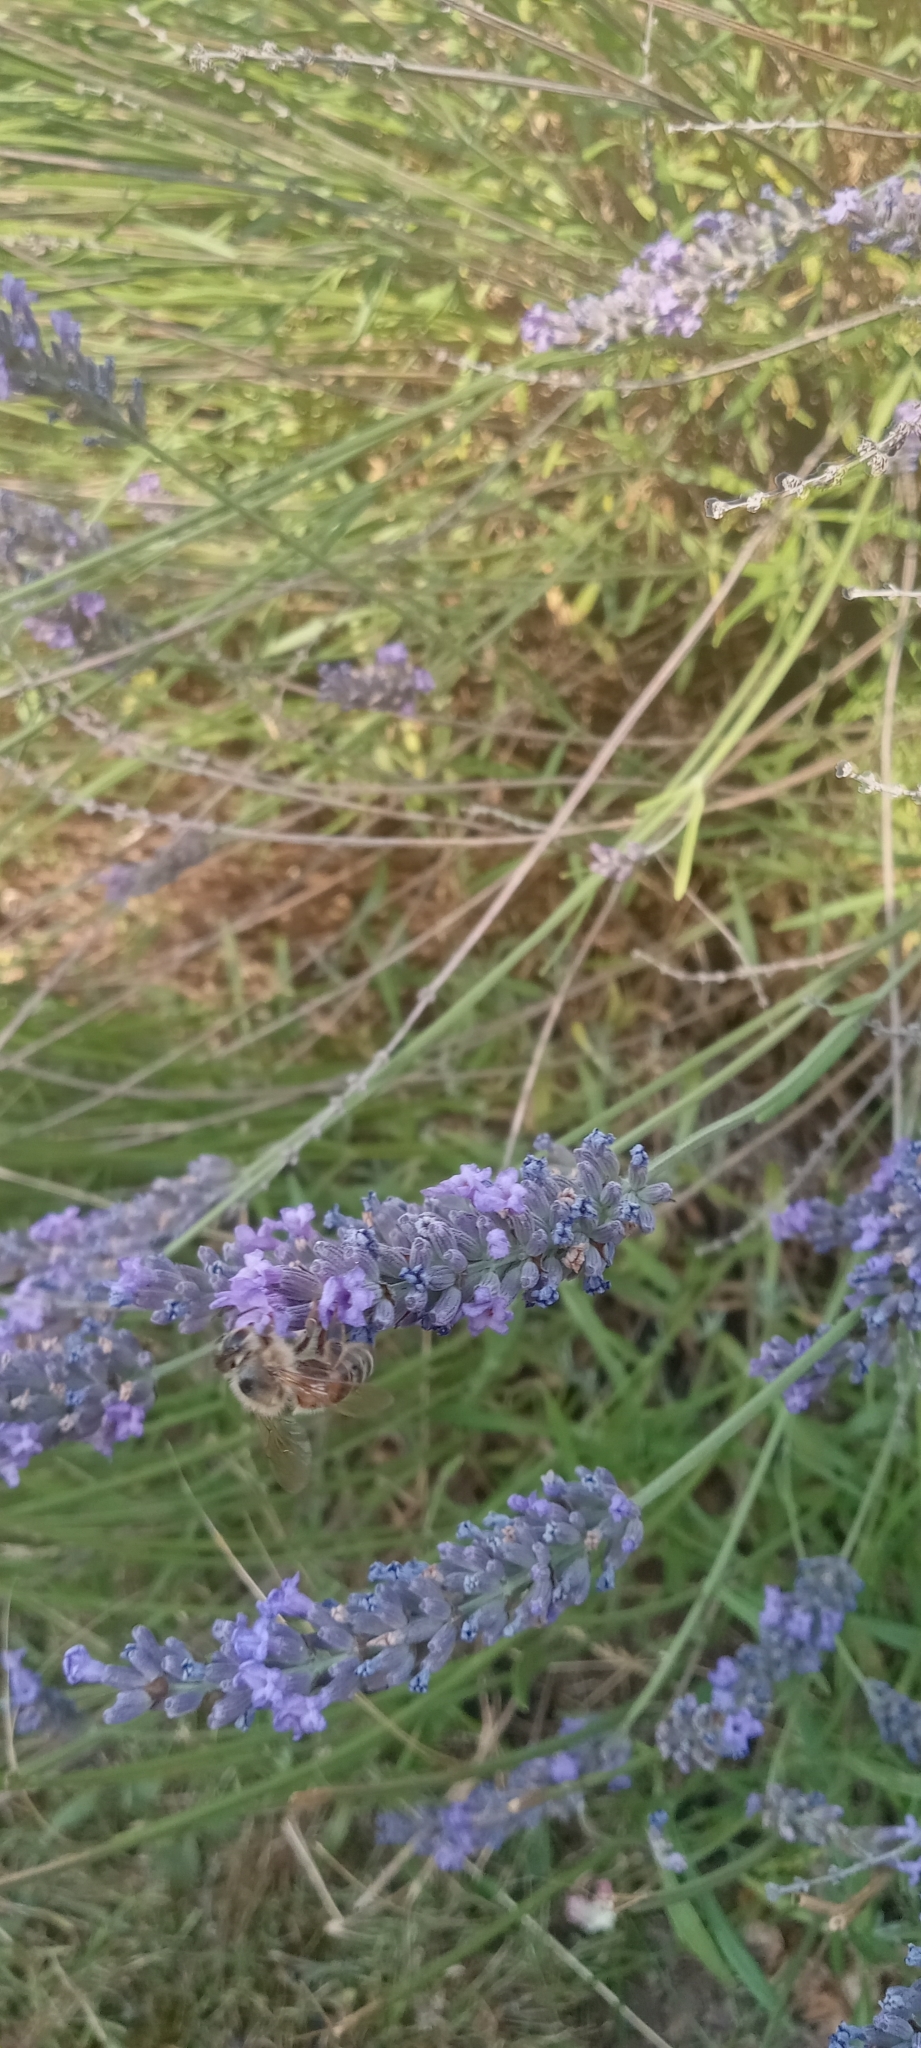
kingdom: Animalia
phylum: Arthropoda
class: Insecta
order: Hymenoptera
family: Apidae
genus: Apis
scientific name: Apis mellifera
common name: Honey bee
